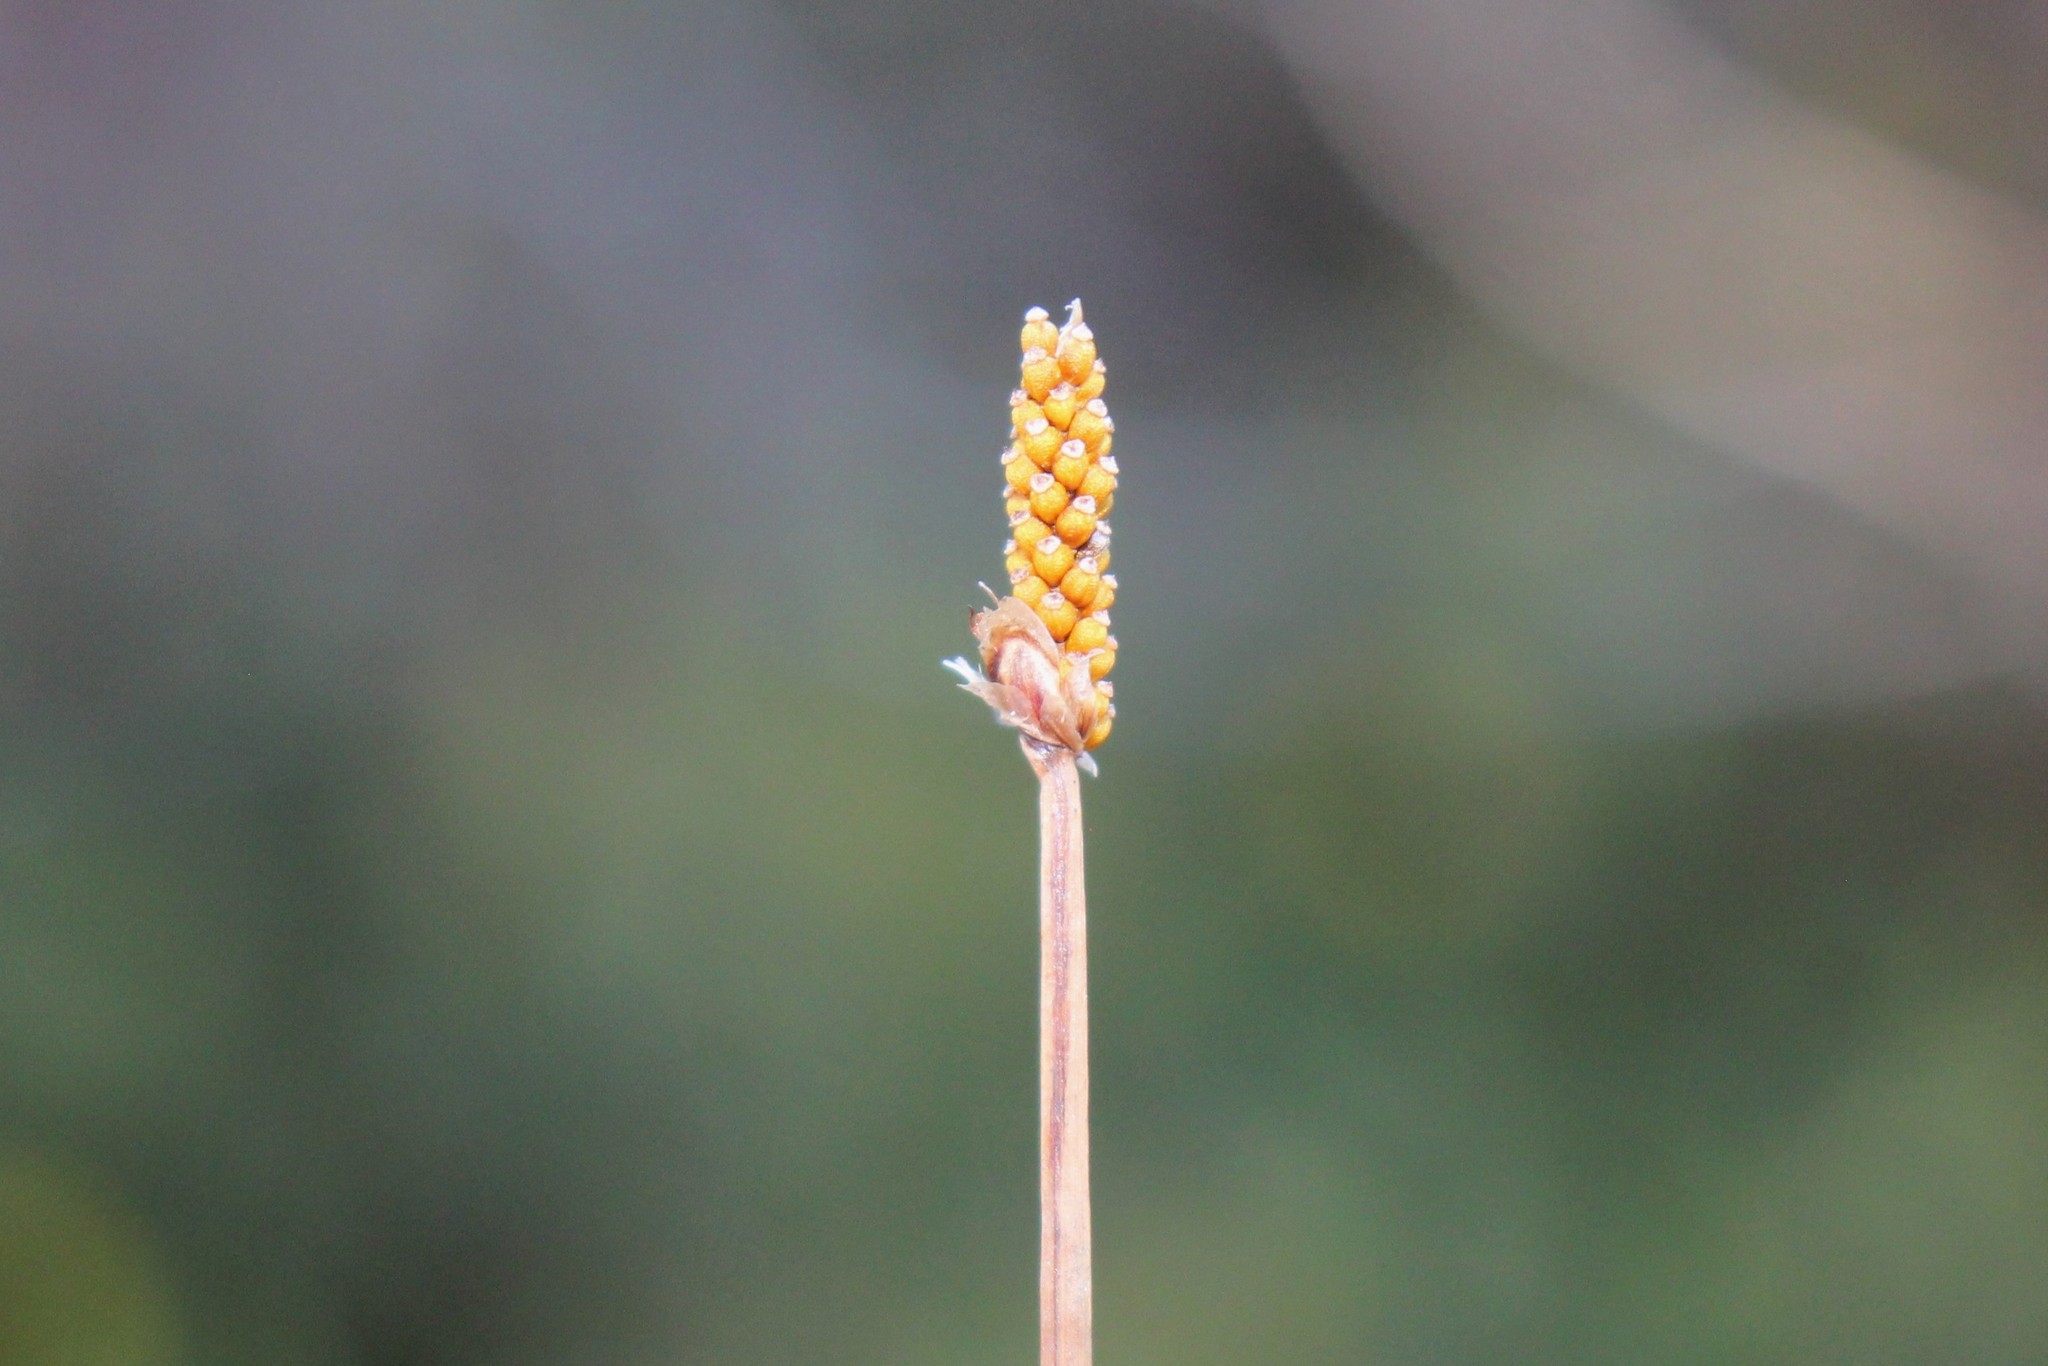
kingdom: Plantae
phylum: Tracheophyta
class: Liliopsida
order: Poales
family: Cyperaceae
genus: Eleocharis
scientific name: Eleocharis elliptica
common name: Capitate spikerush
